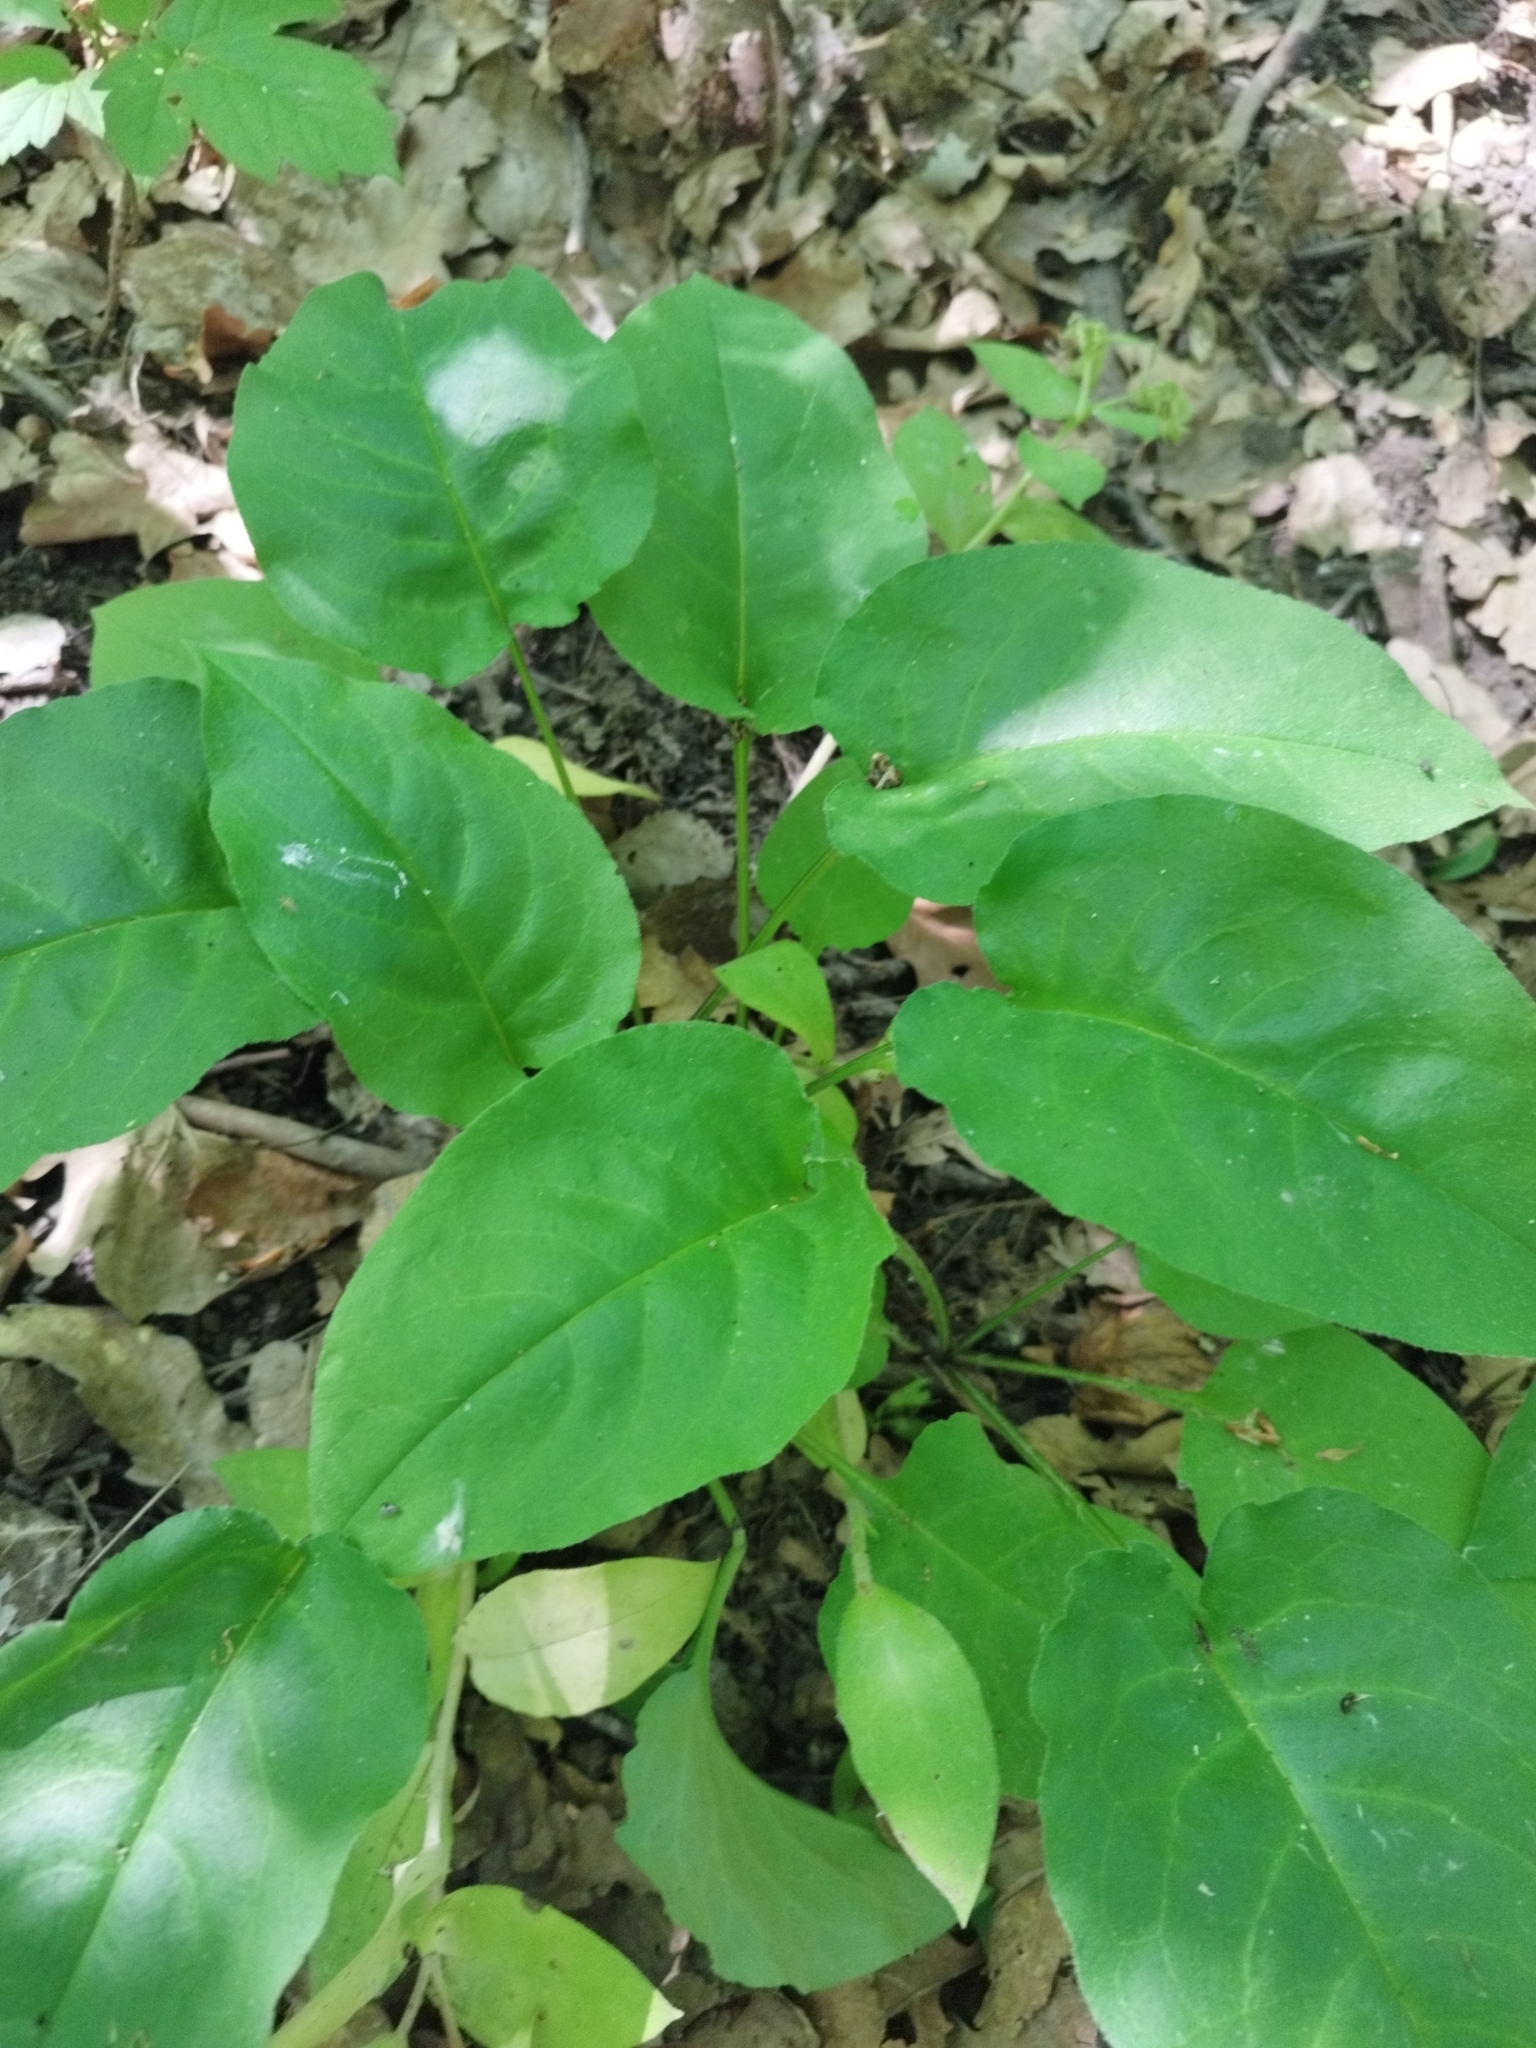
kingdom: Plantae
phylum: Tracheophyta
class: Magnoliopsida
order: Boraginales
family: Boraginaceae
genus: Pulmonaria
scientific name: Pulmonaria obscura
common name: Suffolk lungwort
